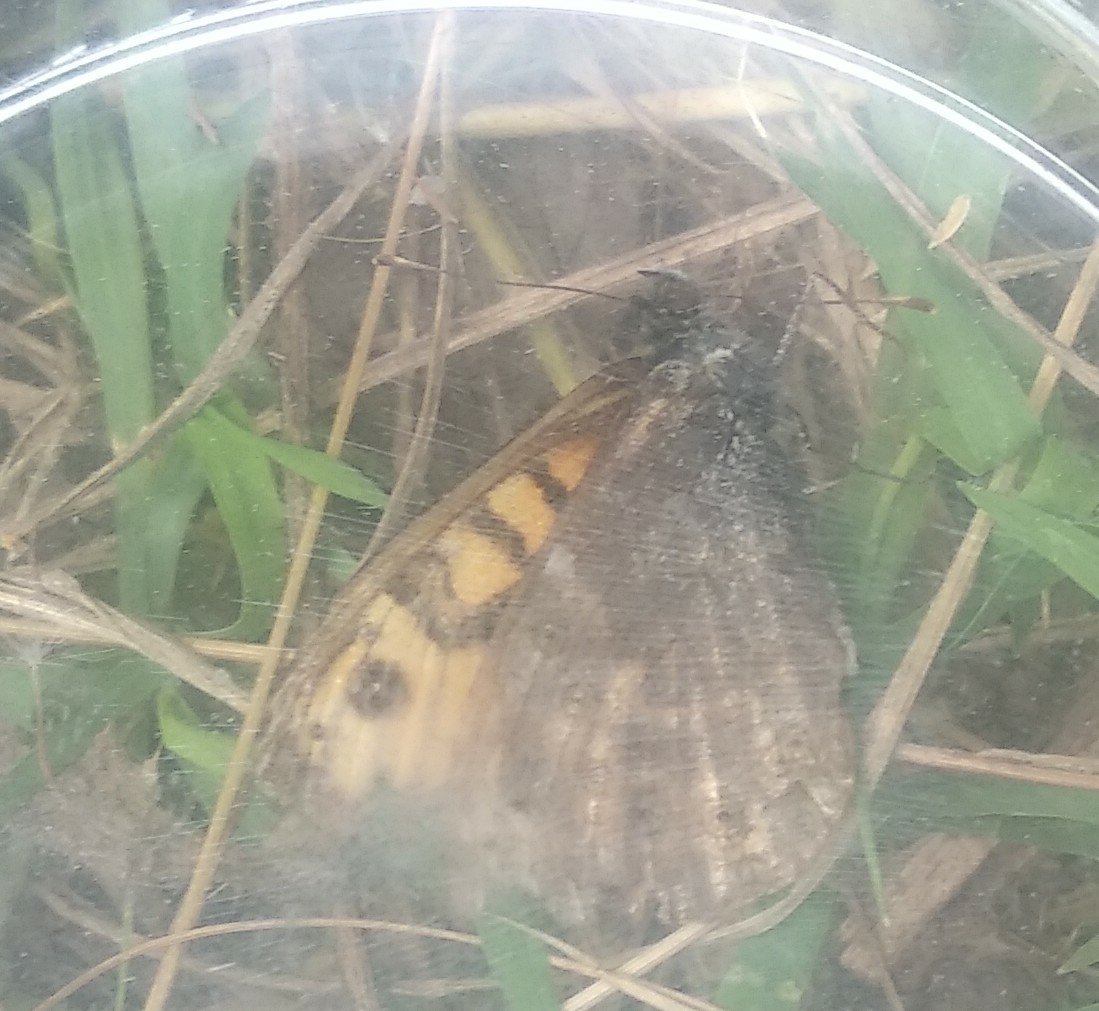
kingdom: Animalia
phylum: Arthropoda
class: Insecta
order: Lepidoptera
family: Nymphalidae
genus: Pararge
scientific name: Pararge Lasiommata megera
